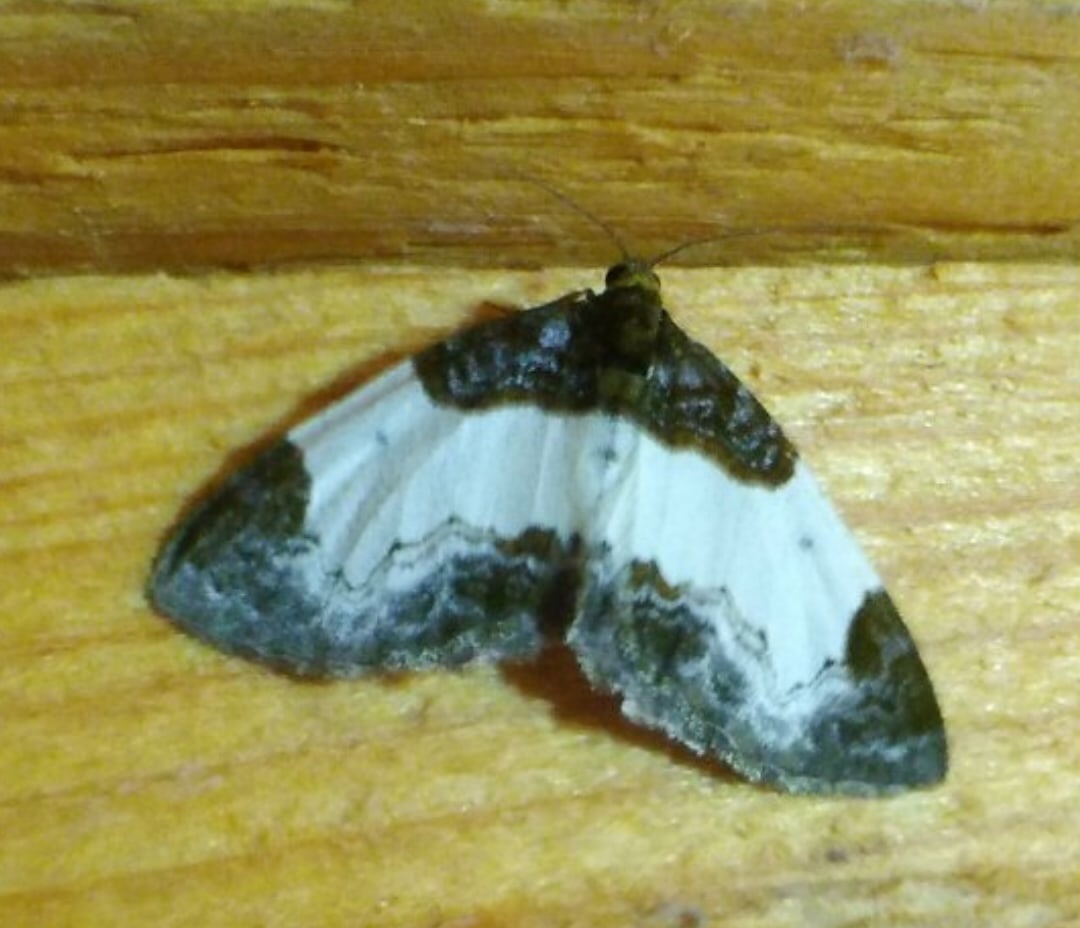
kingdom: Animalia
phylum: Arthropoda
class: Insecta
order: Lepidoptera
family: Geometridae
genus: Mesoleuca
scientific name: Mesoleuca albicillata
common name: Beautiful carpet
